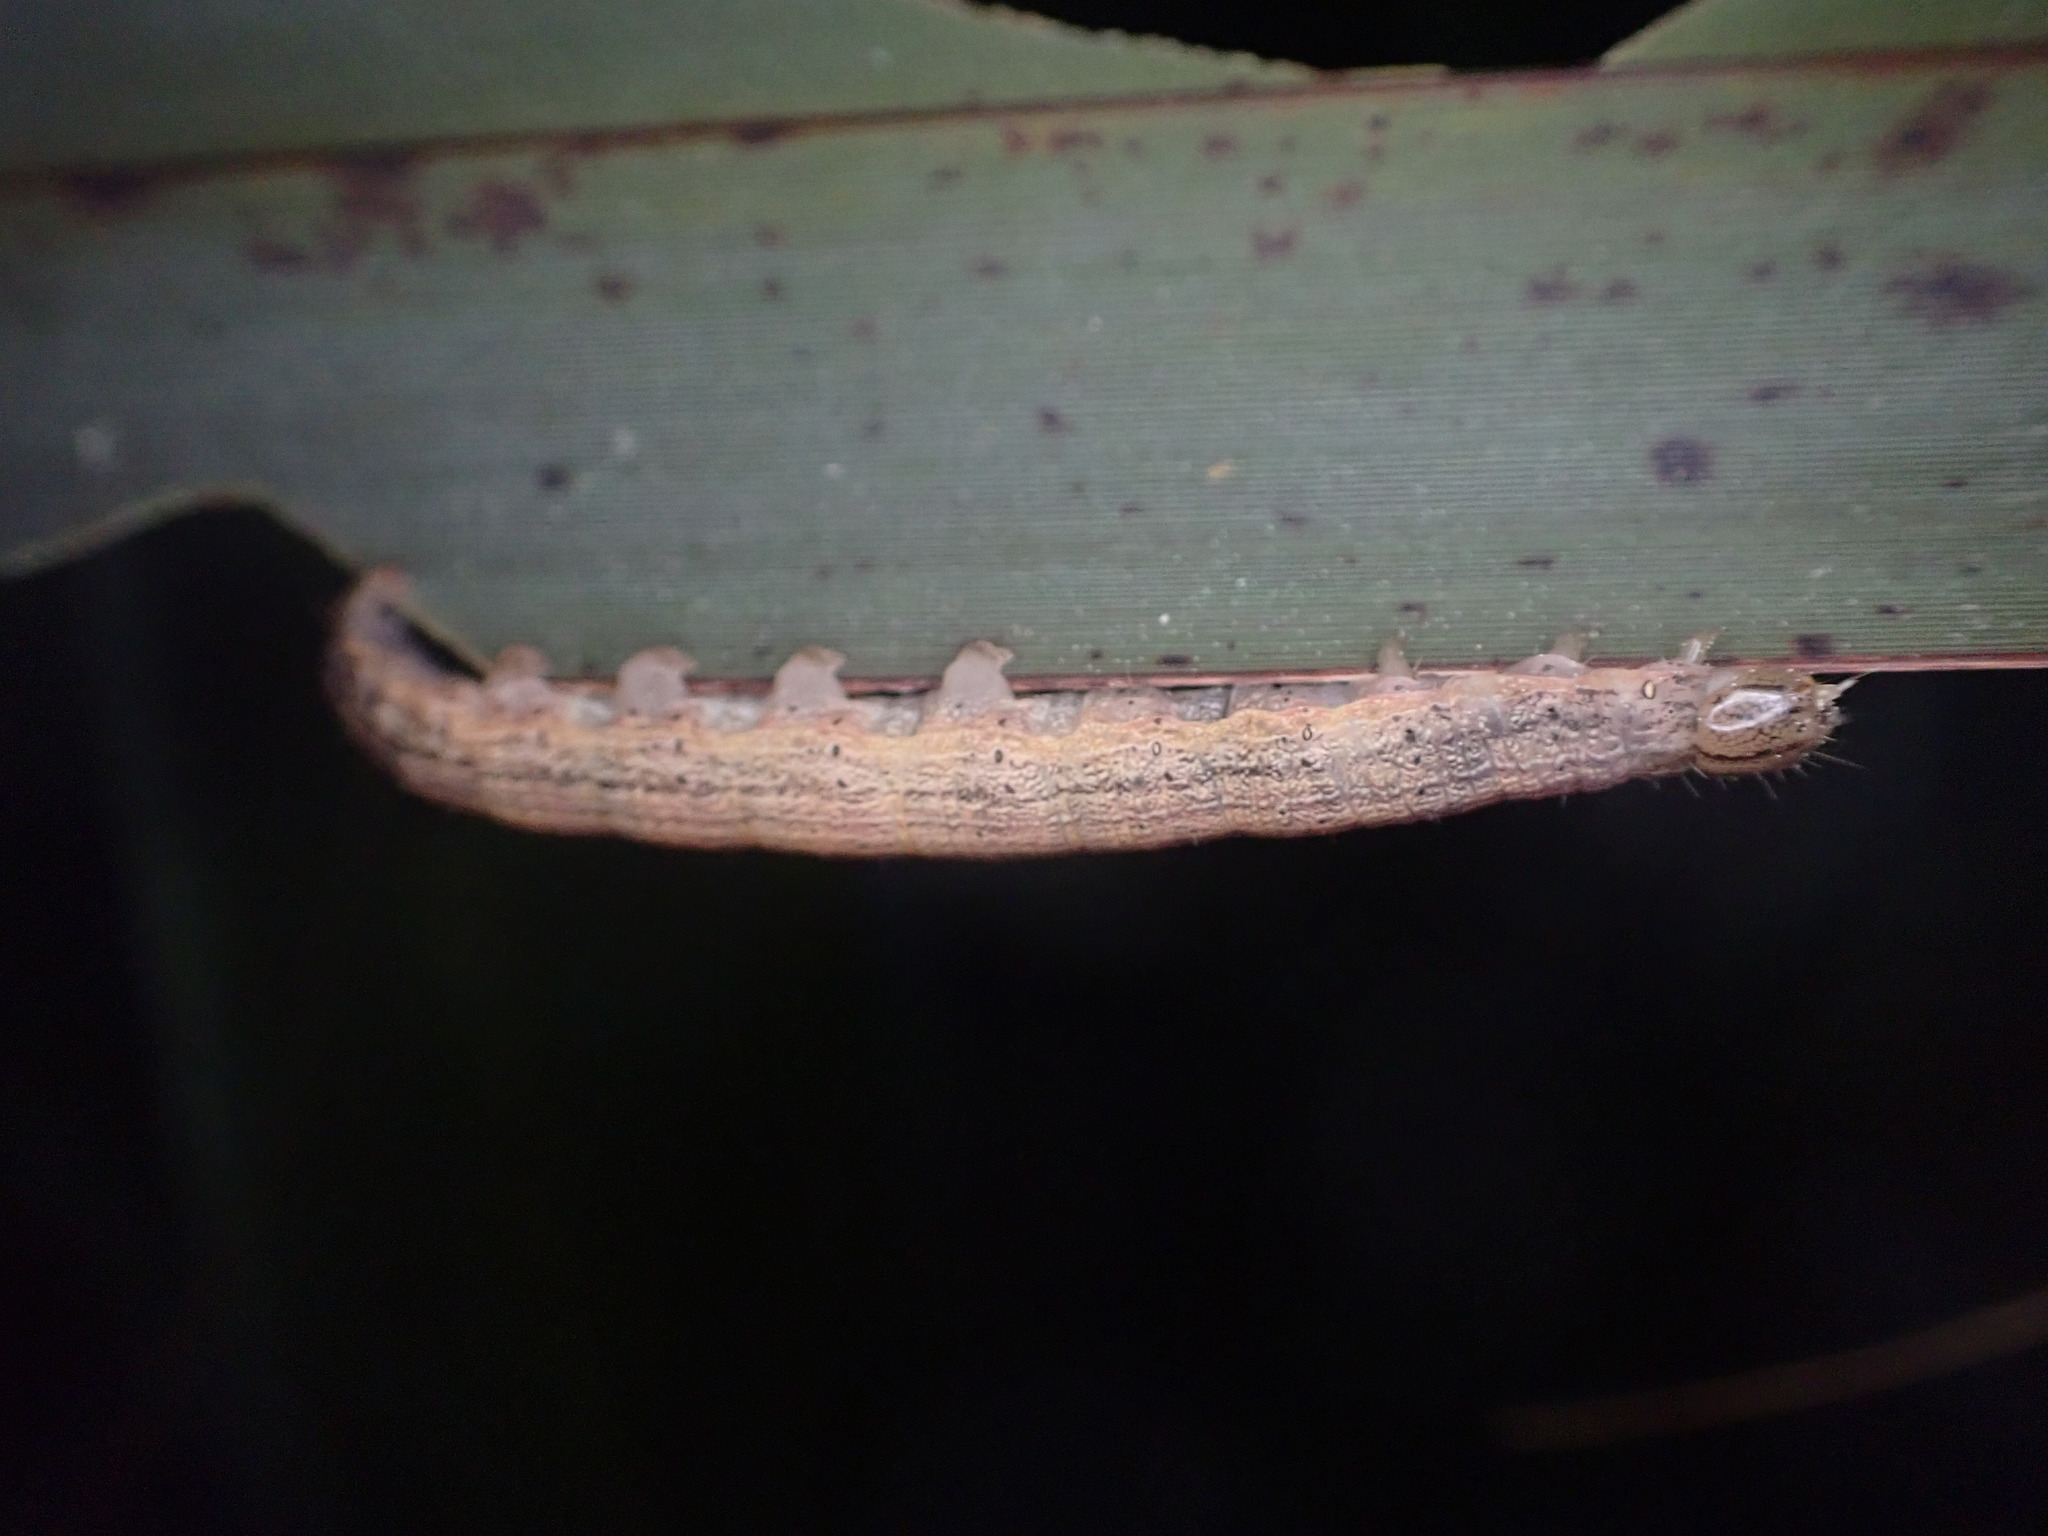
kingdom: Animalia
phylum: Arthropoda
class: Insecta
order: Lepidoptera
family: Noctuidae
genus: Ichneutica
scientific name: Ichneutica
